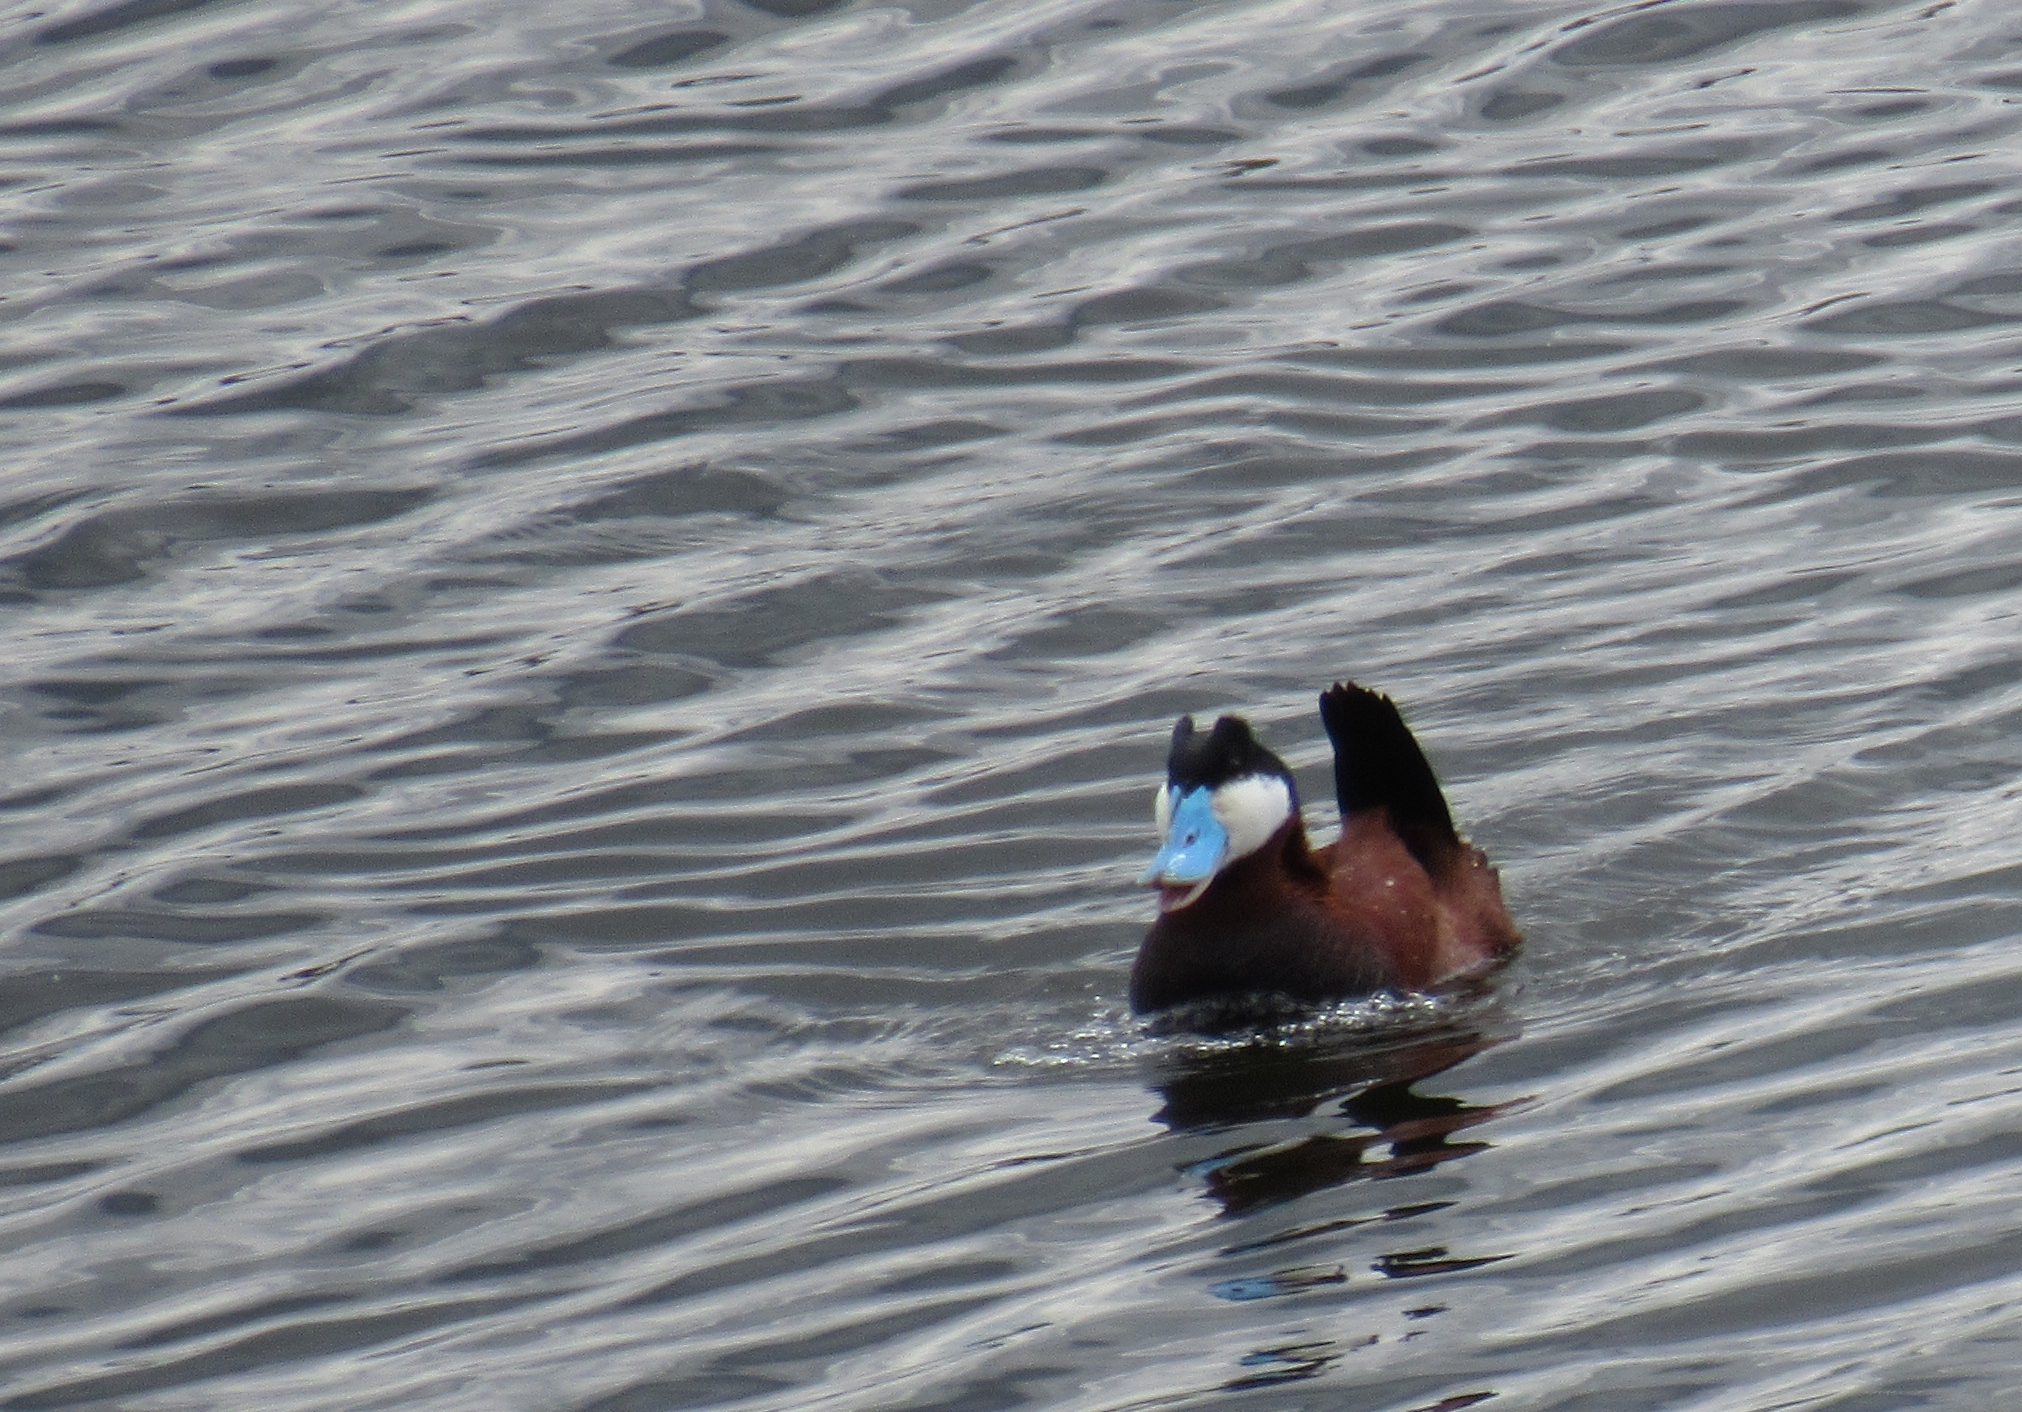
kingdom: Animalia
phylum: Chordata
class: Aves
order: Anseriformes
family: Anatidae
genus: Oxyura
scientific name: Oxyura jamaicensis
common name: Ruddy duck
